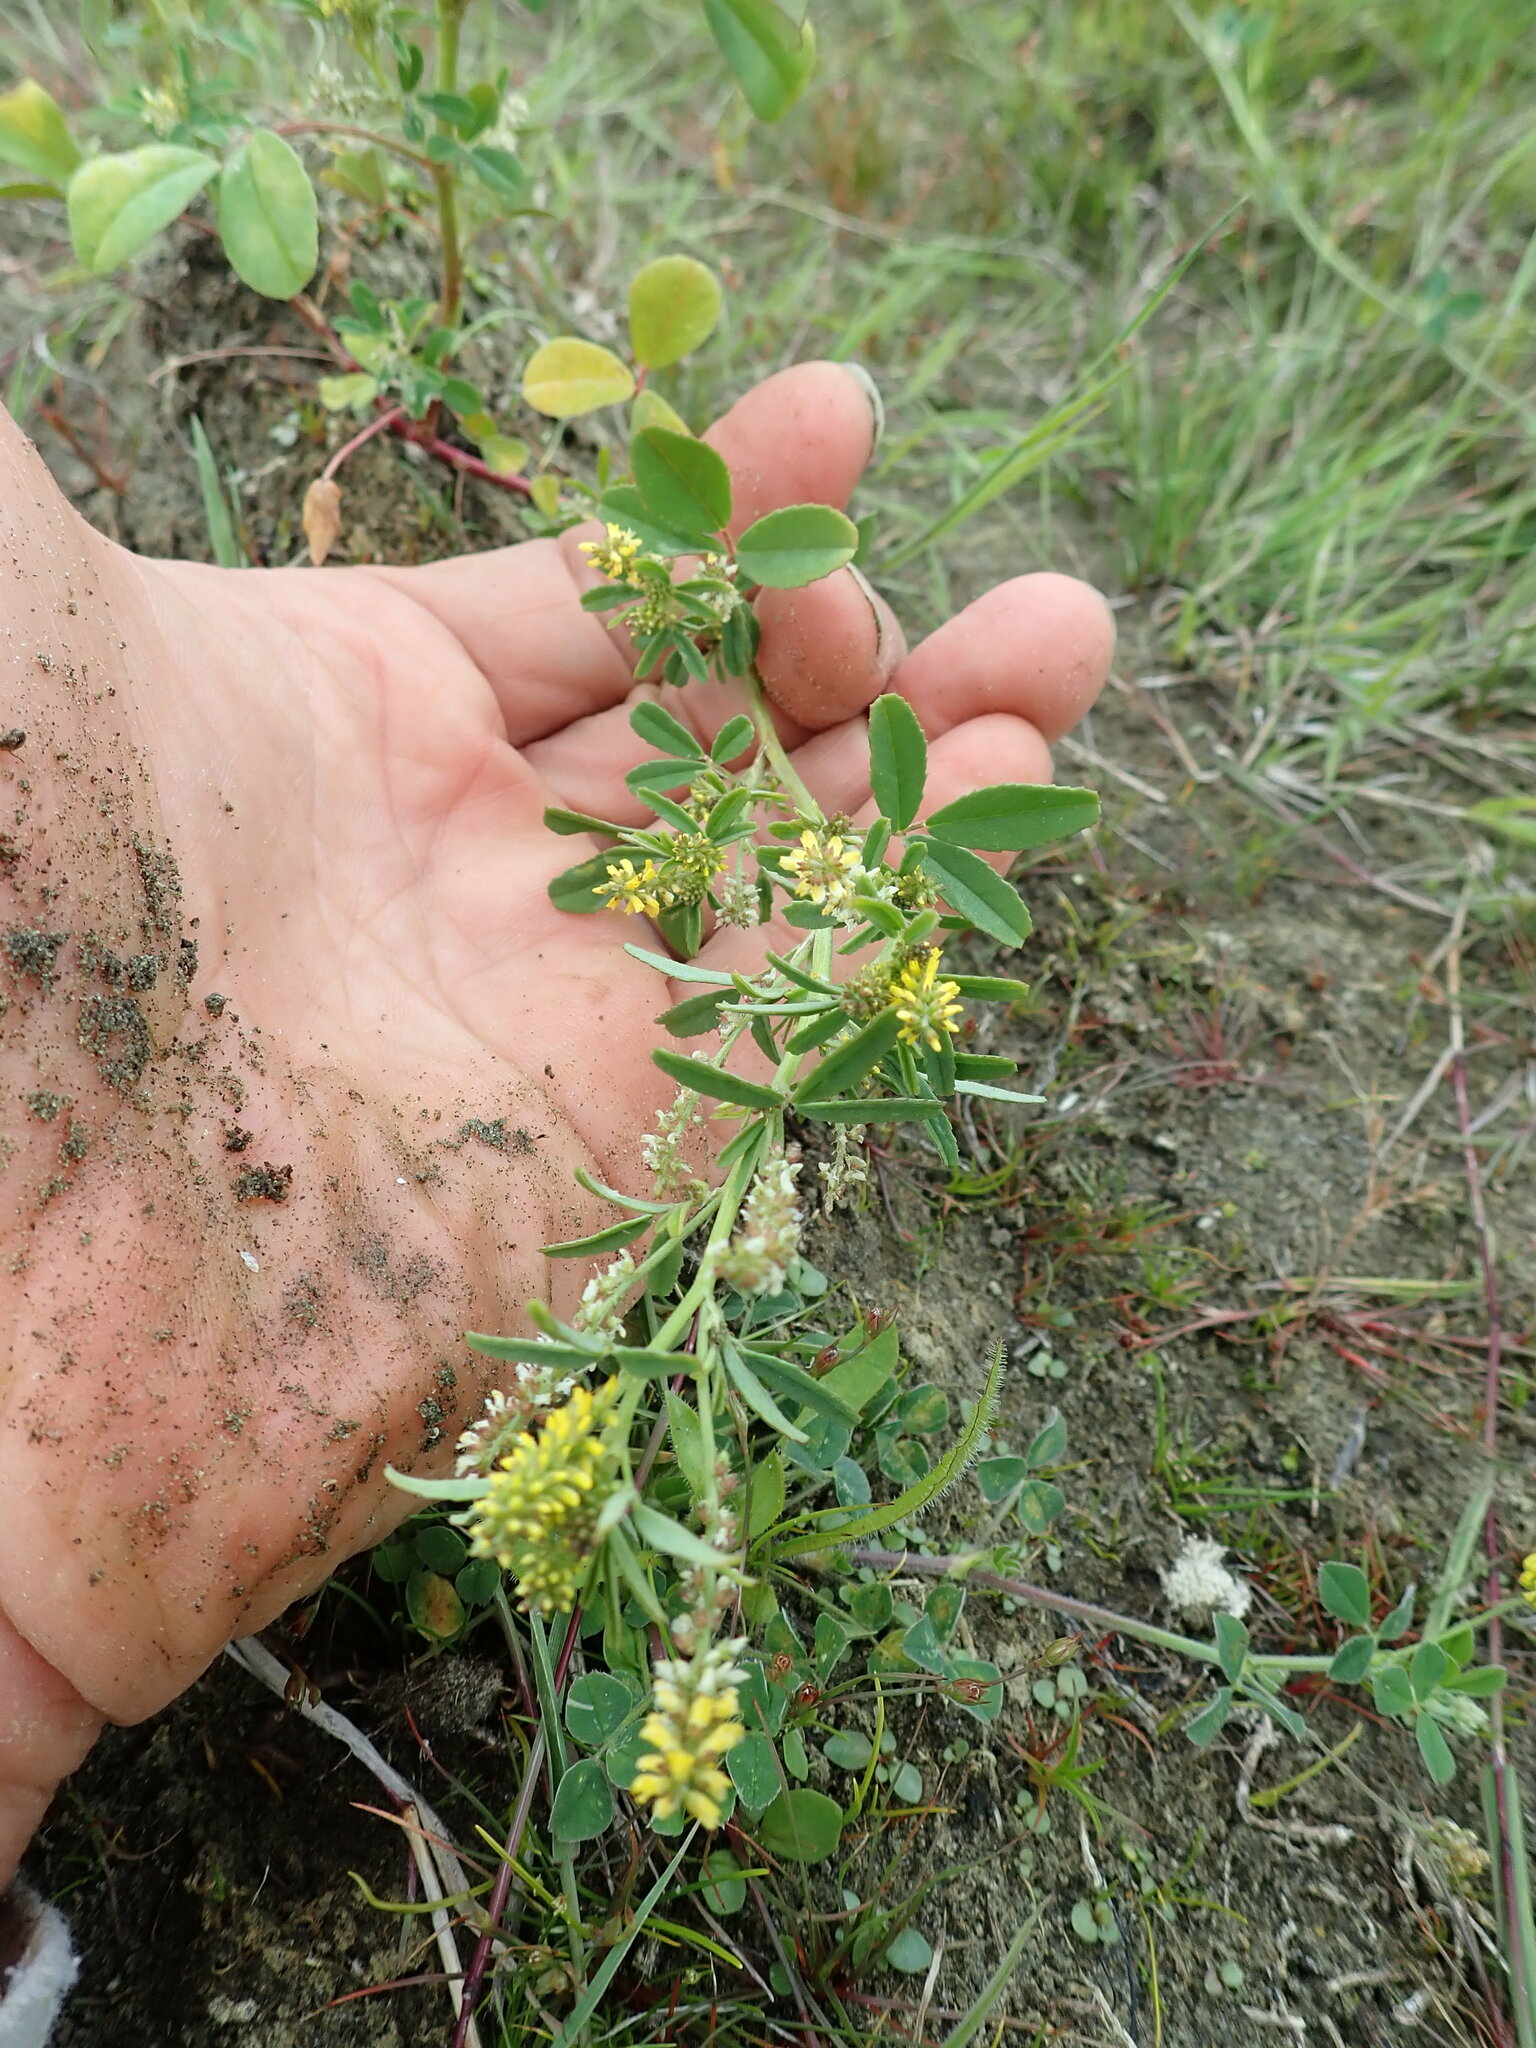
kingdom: Plantae
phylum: Tracheophyta
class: Magnoliopsida
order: Fabales
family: Fabaceae
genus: Melilotus
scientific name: Melilotus indicus
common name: Small melilot
